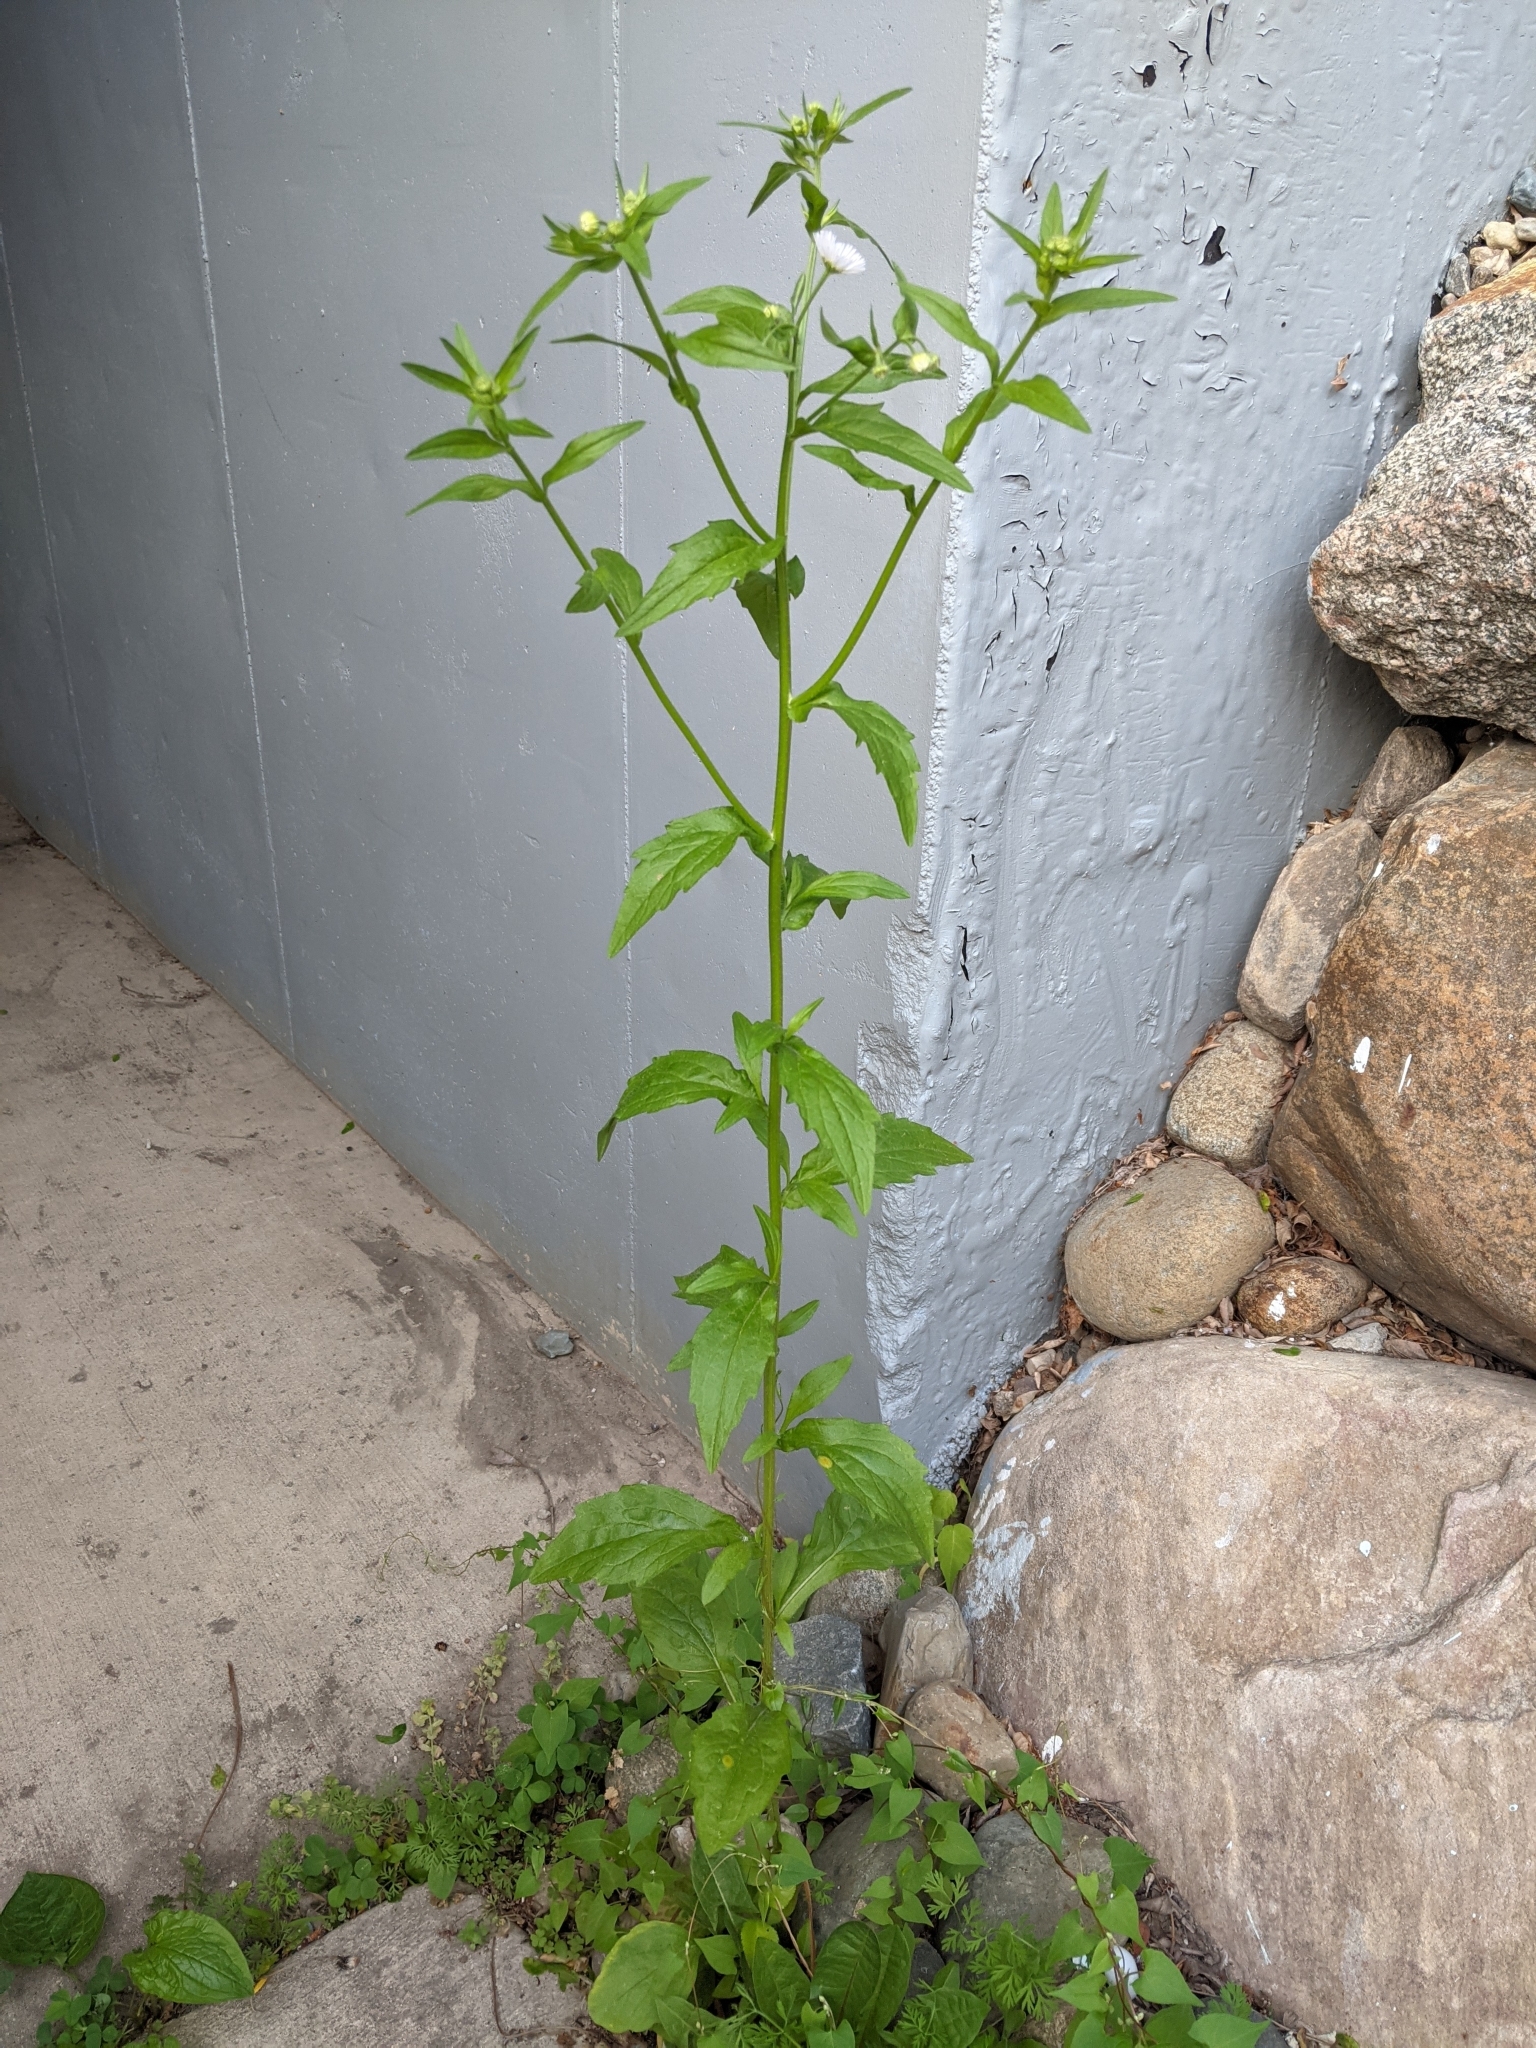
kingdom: Plantae
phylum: Tracheophyta
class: Magnoliopsida
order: Asterales
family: Asteraceae
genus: Erigeron
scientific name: Erigeron annuus
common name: Tall fleabane
